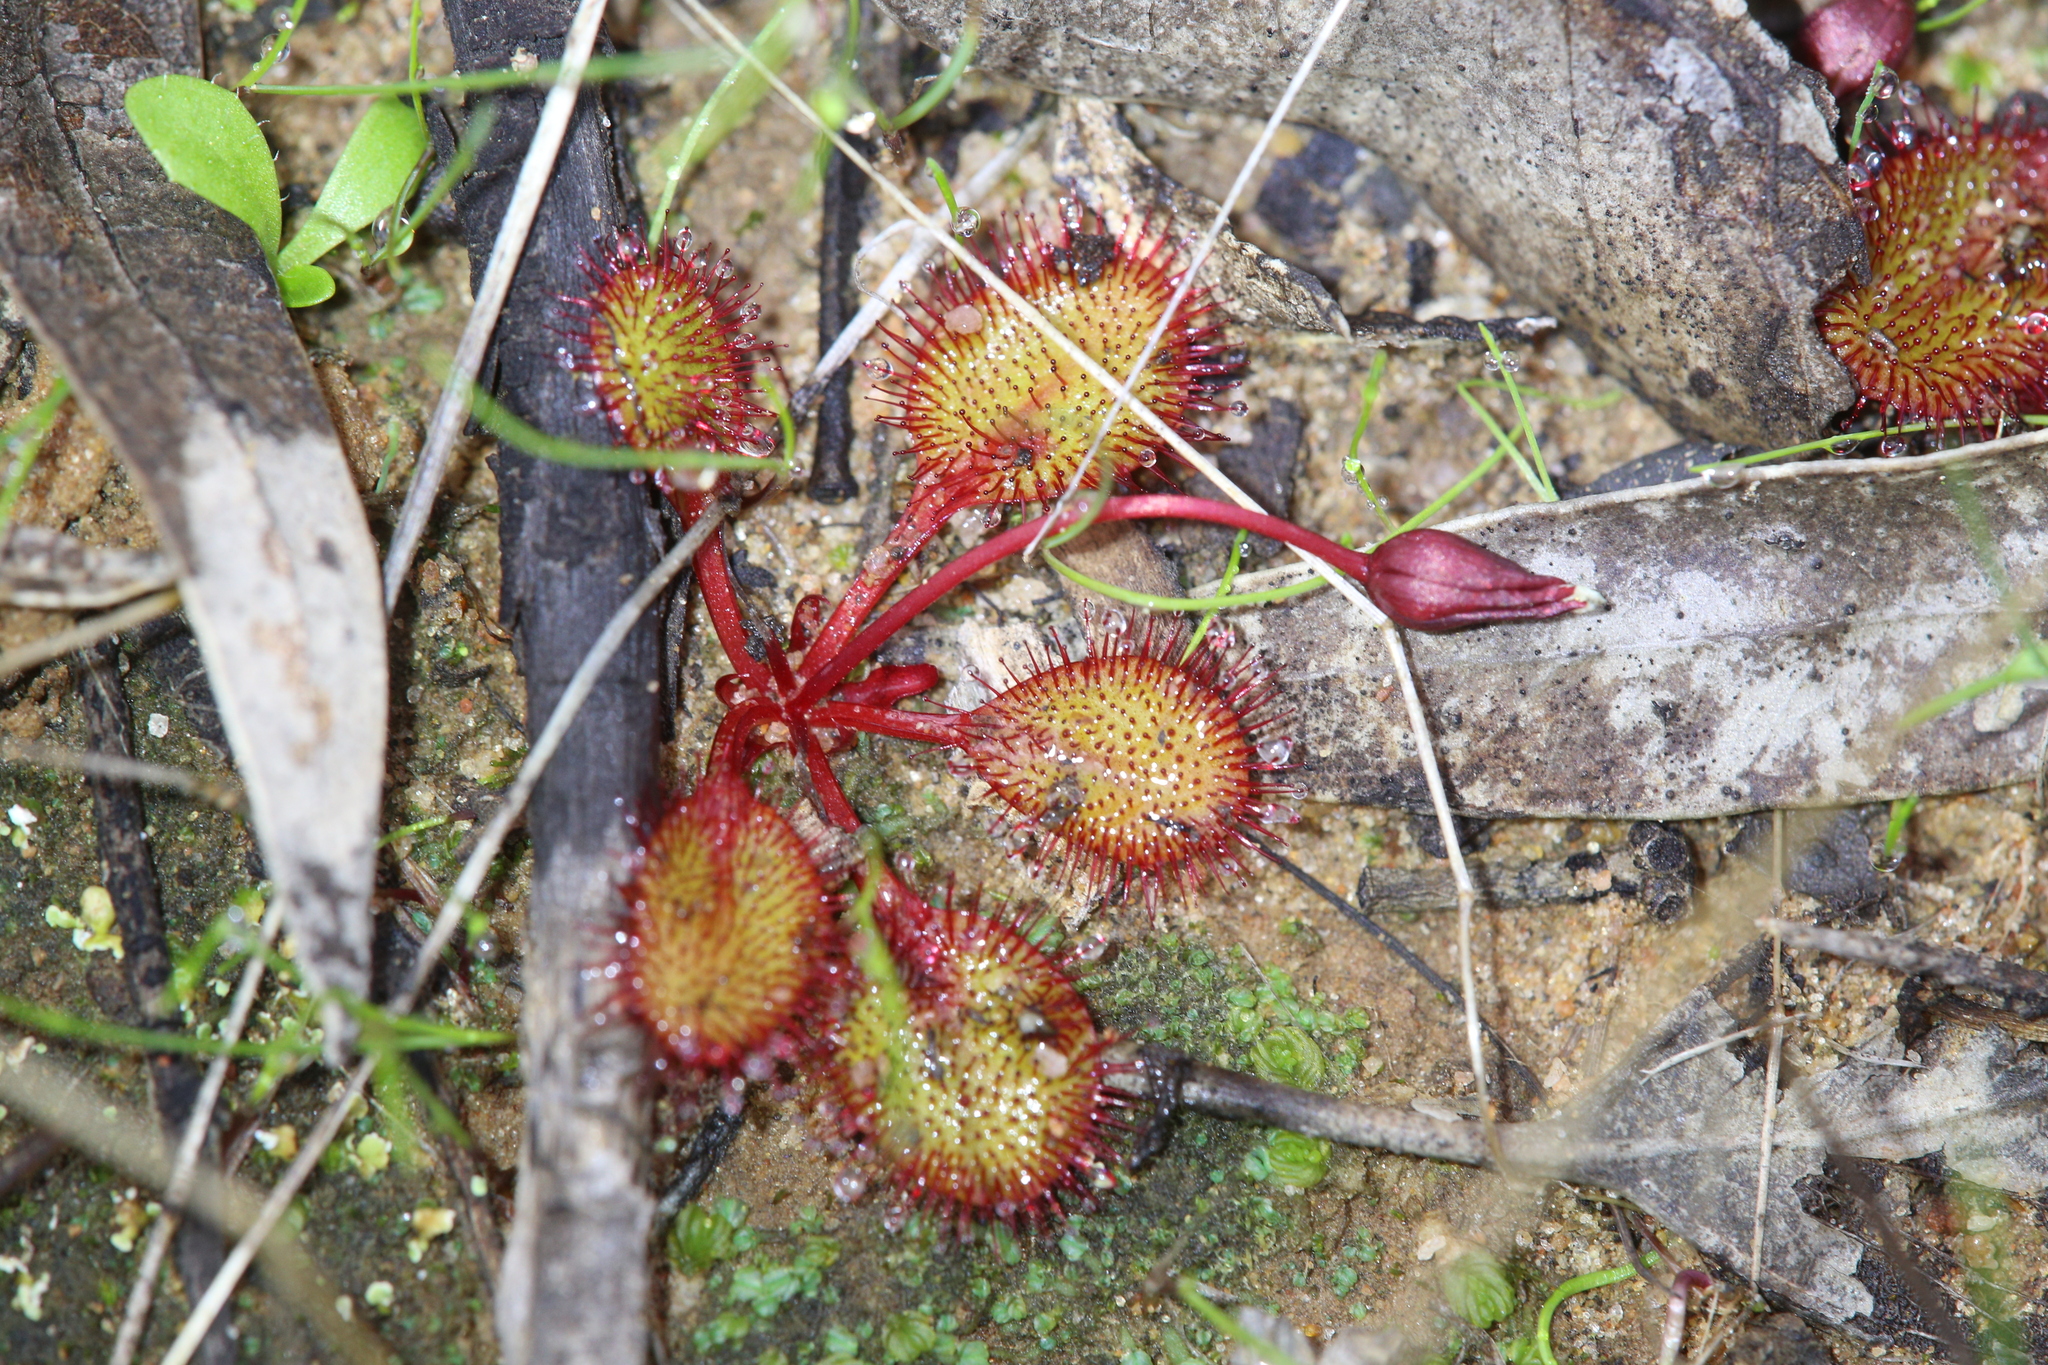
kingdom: Plantae
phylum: Tracheophyta
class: Magnoliopsida
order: Caryophyllales
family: Droseraceae
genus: Drosera
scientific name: Drosera orbiculata
